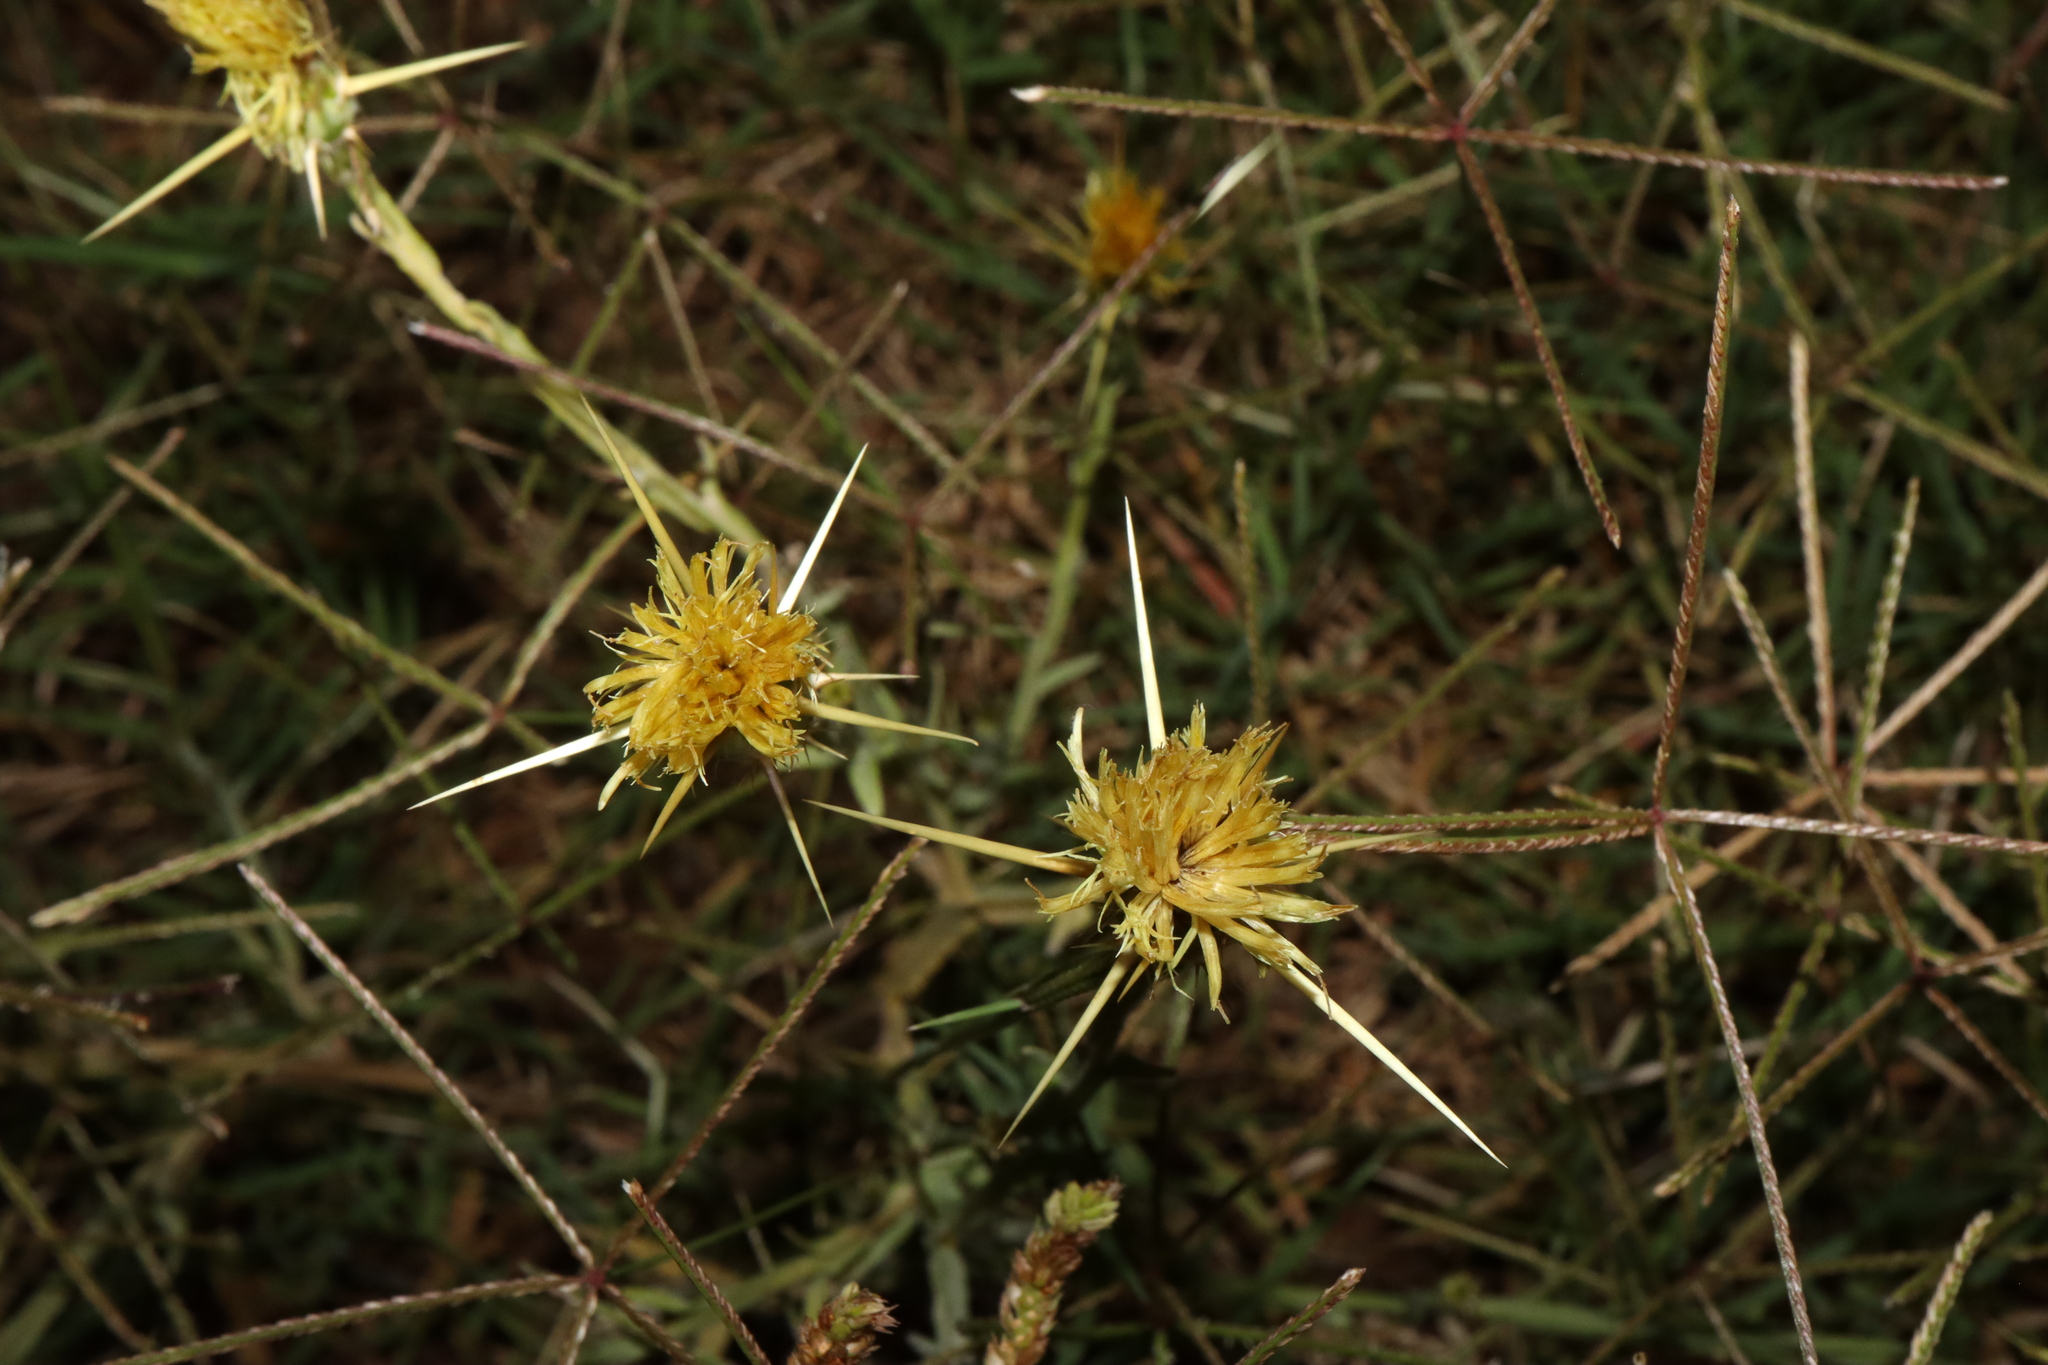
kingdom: Plantae
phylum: Tracheophyta
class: Magnoliopsida
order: Asterales
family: Asteraceae
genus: Centaurea
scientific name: Centaurea solstitialis
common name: Yellow star-thistle
